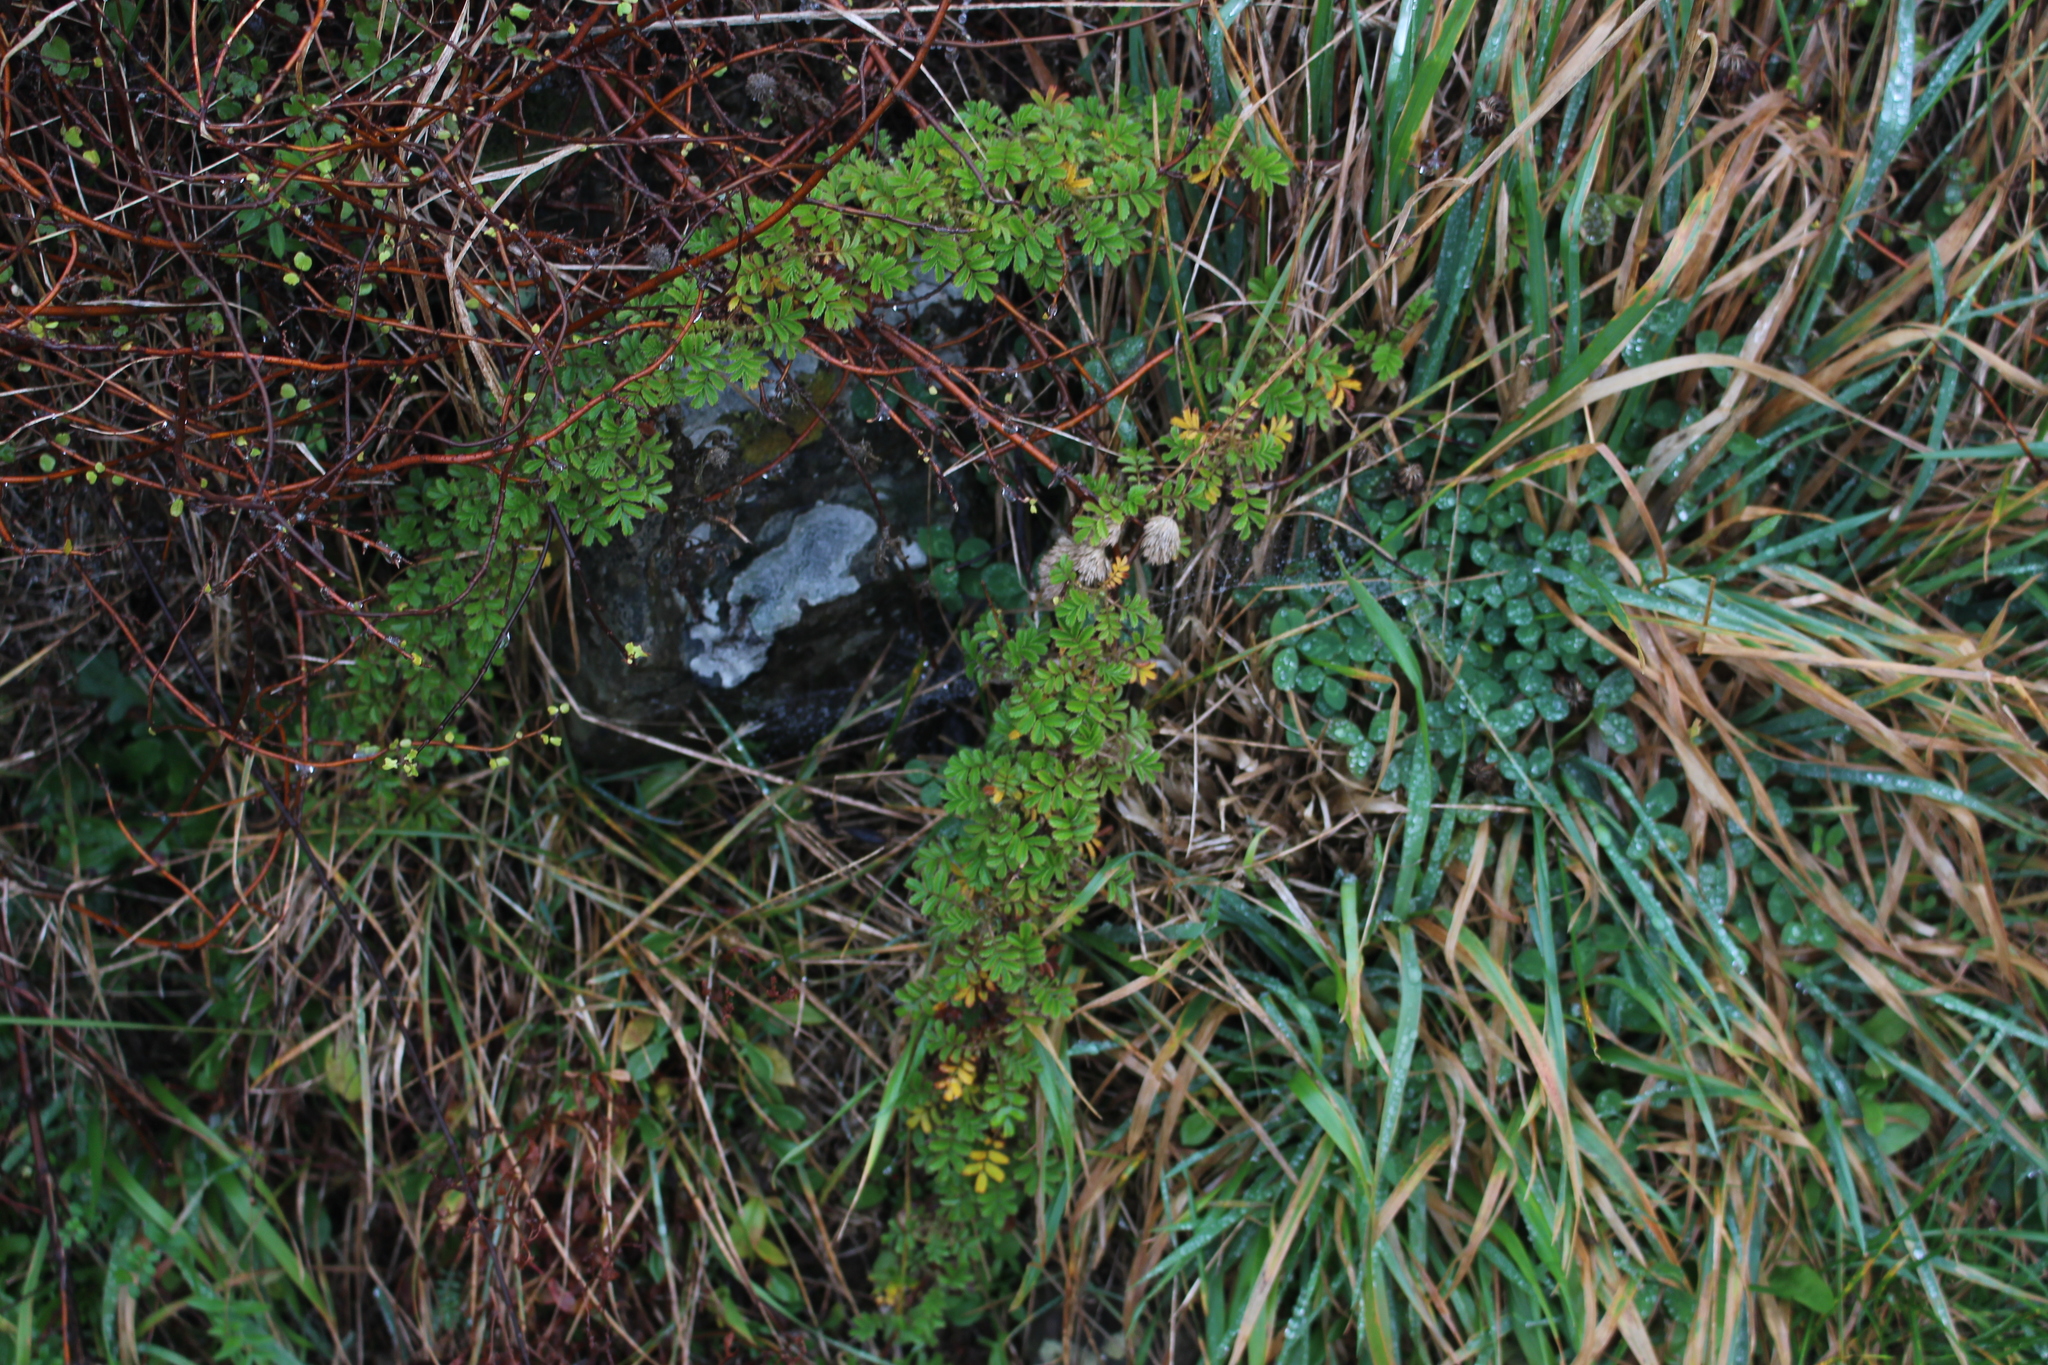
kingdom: Plantae
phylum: Tracheophyta
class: Magnoliopsida
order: Rosales
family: Rosaceae
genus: Acaena
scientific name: Acaena anserinifolia
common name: Bronze pirri-pirri-bur
